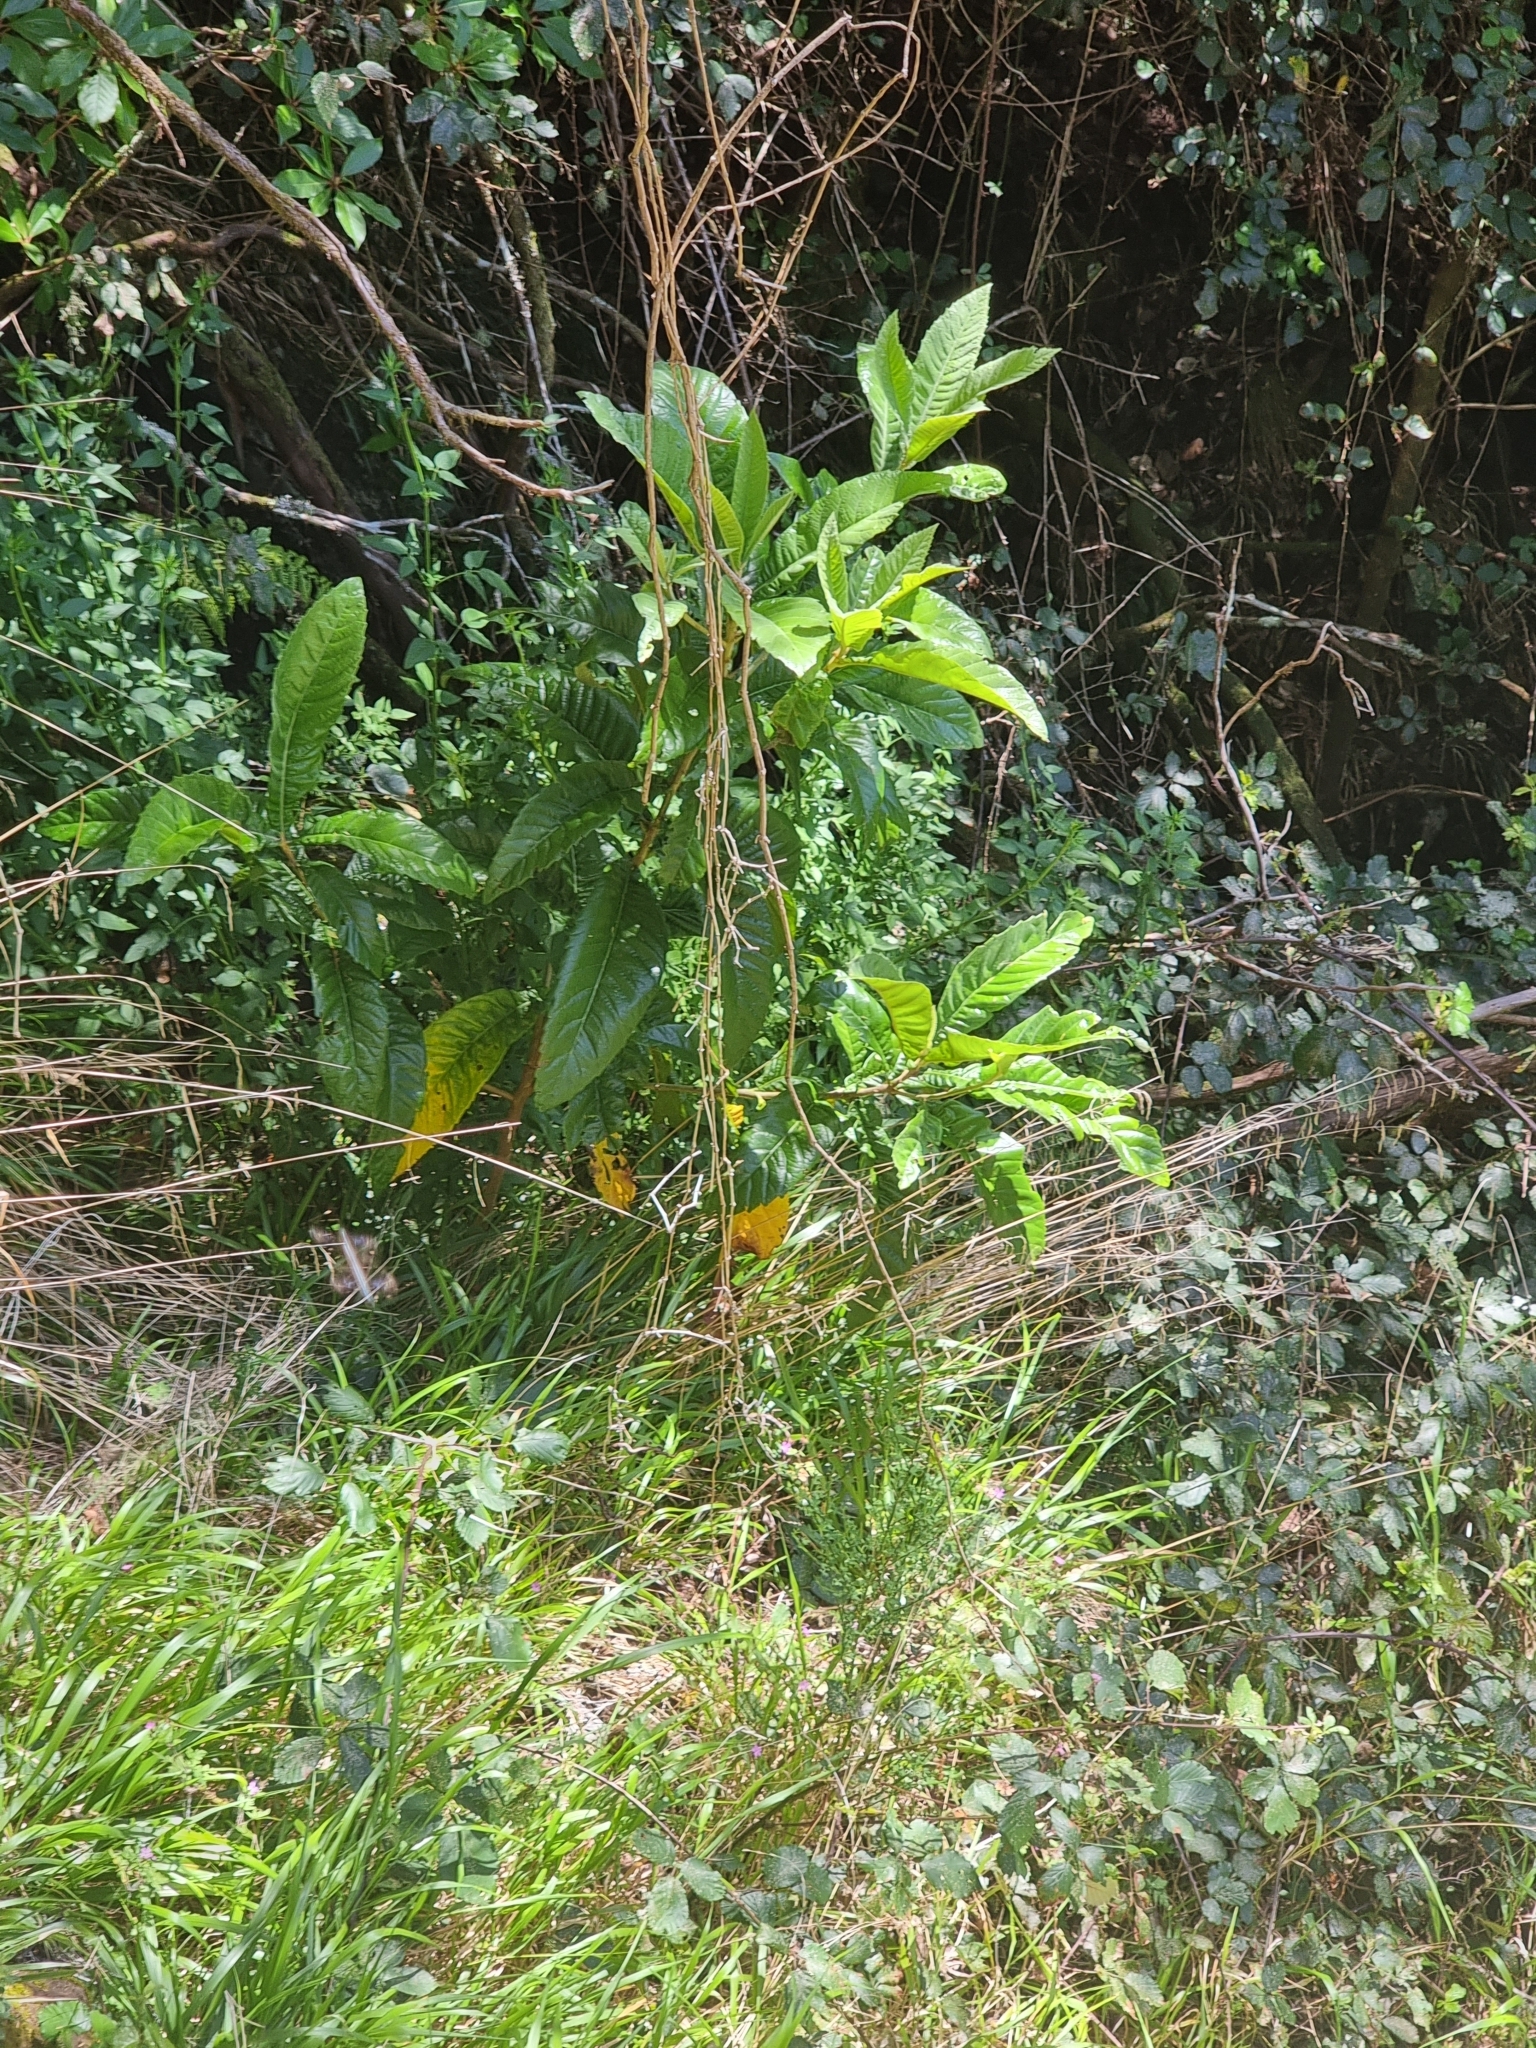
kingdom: Plantae
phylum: Tracheophyta
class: Magnoliopsida
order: Rosales
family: Rosaceae
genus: Rhaphiolepis
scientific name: Rhaphiolepis bibas
